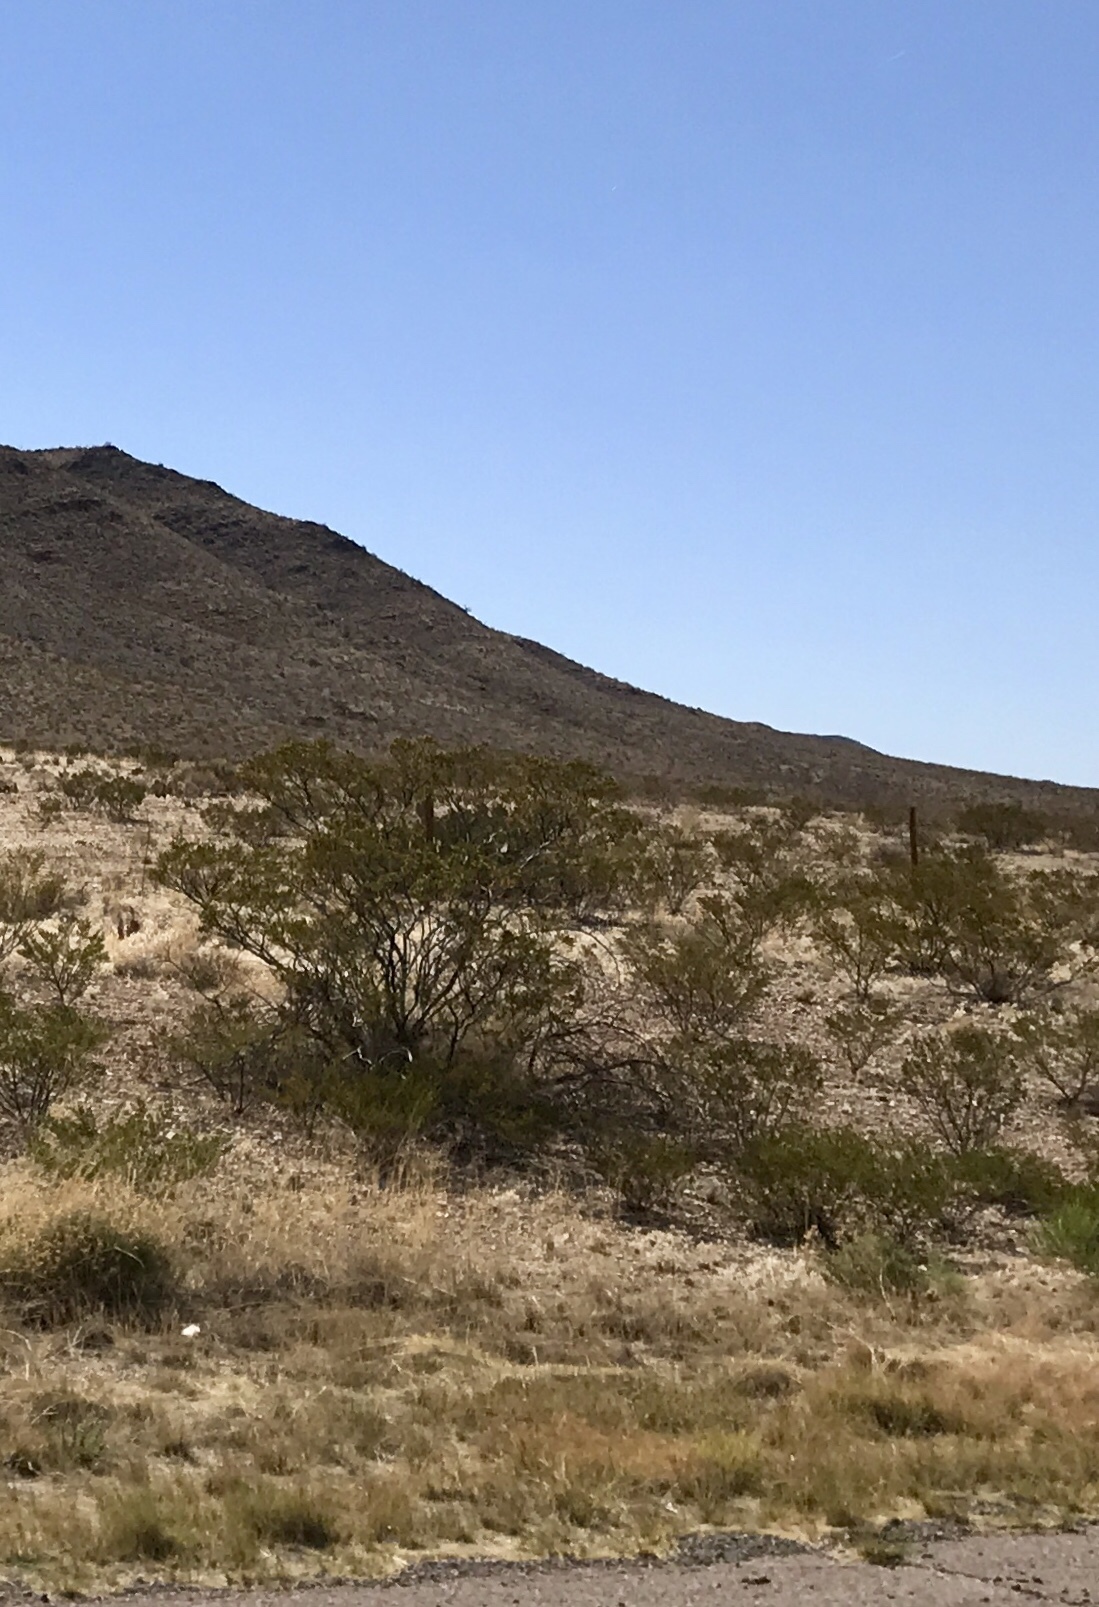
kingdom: Plantae
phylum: Tracheophyta
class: Magnoliopsida
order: Zygophyllales
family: Zygophyllaceae
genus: Larrea
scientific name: Larrea tridentata
